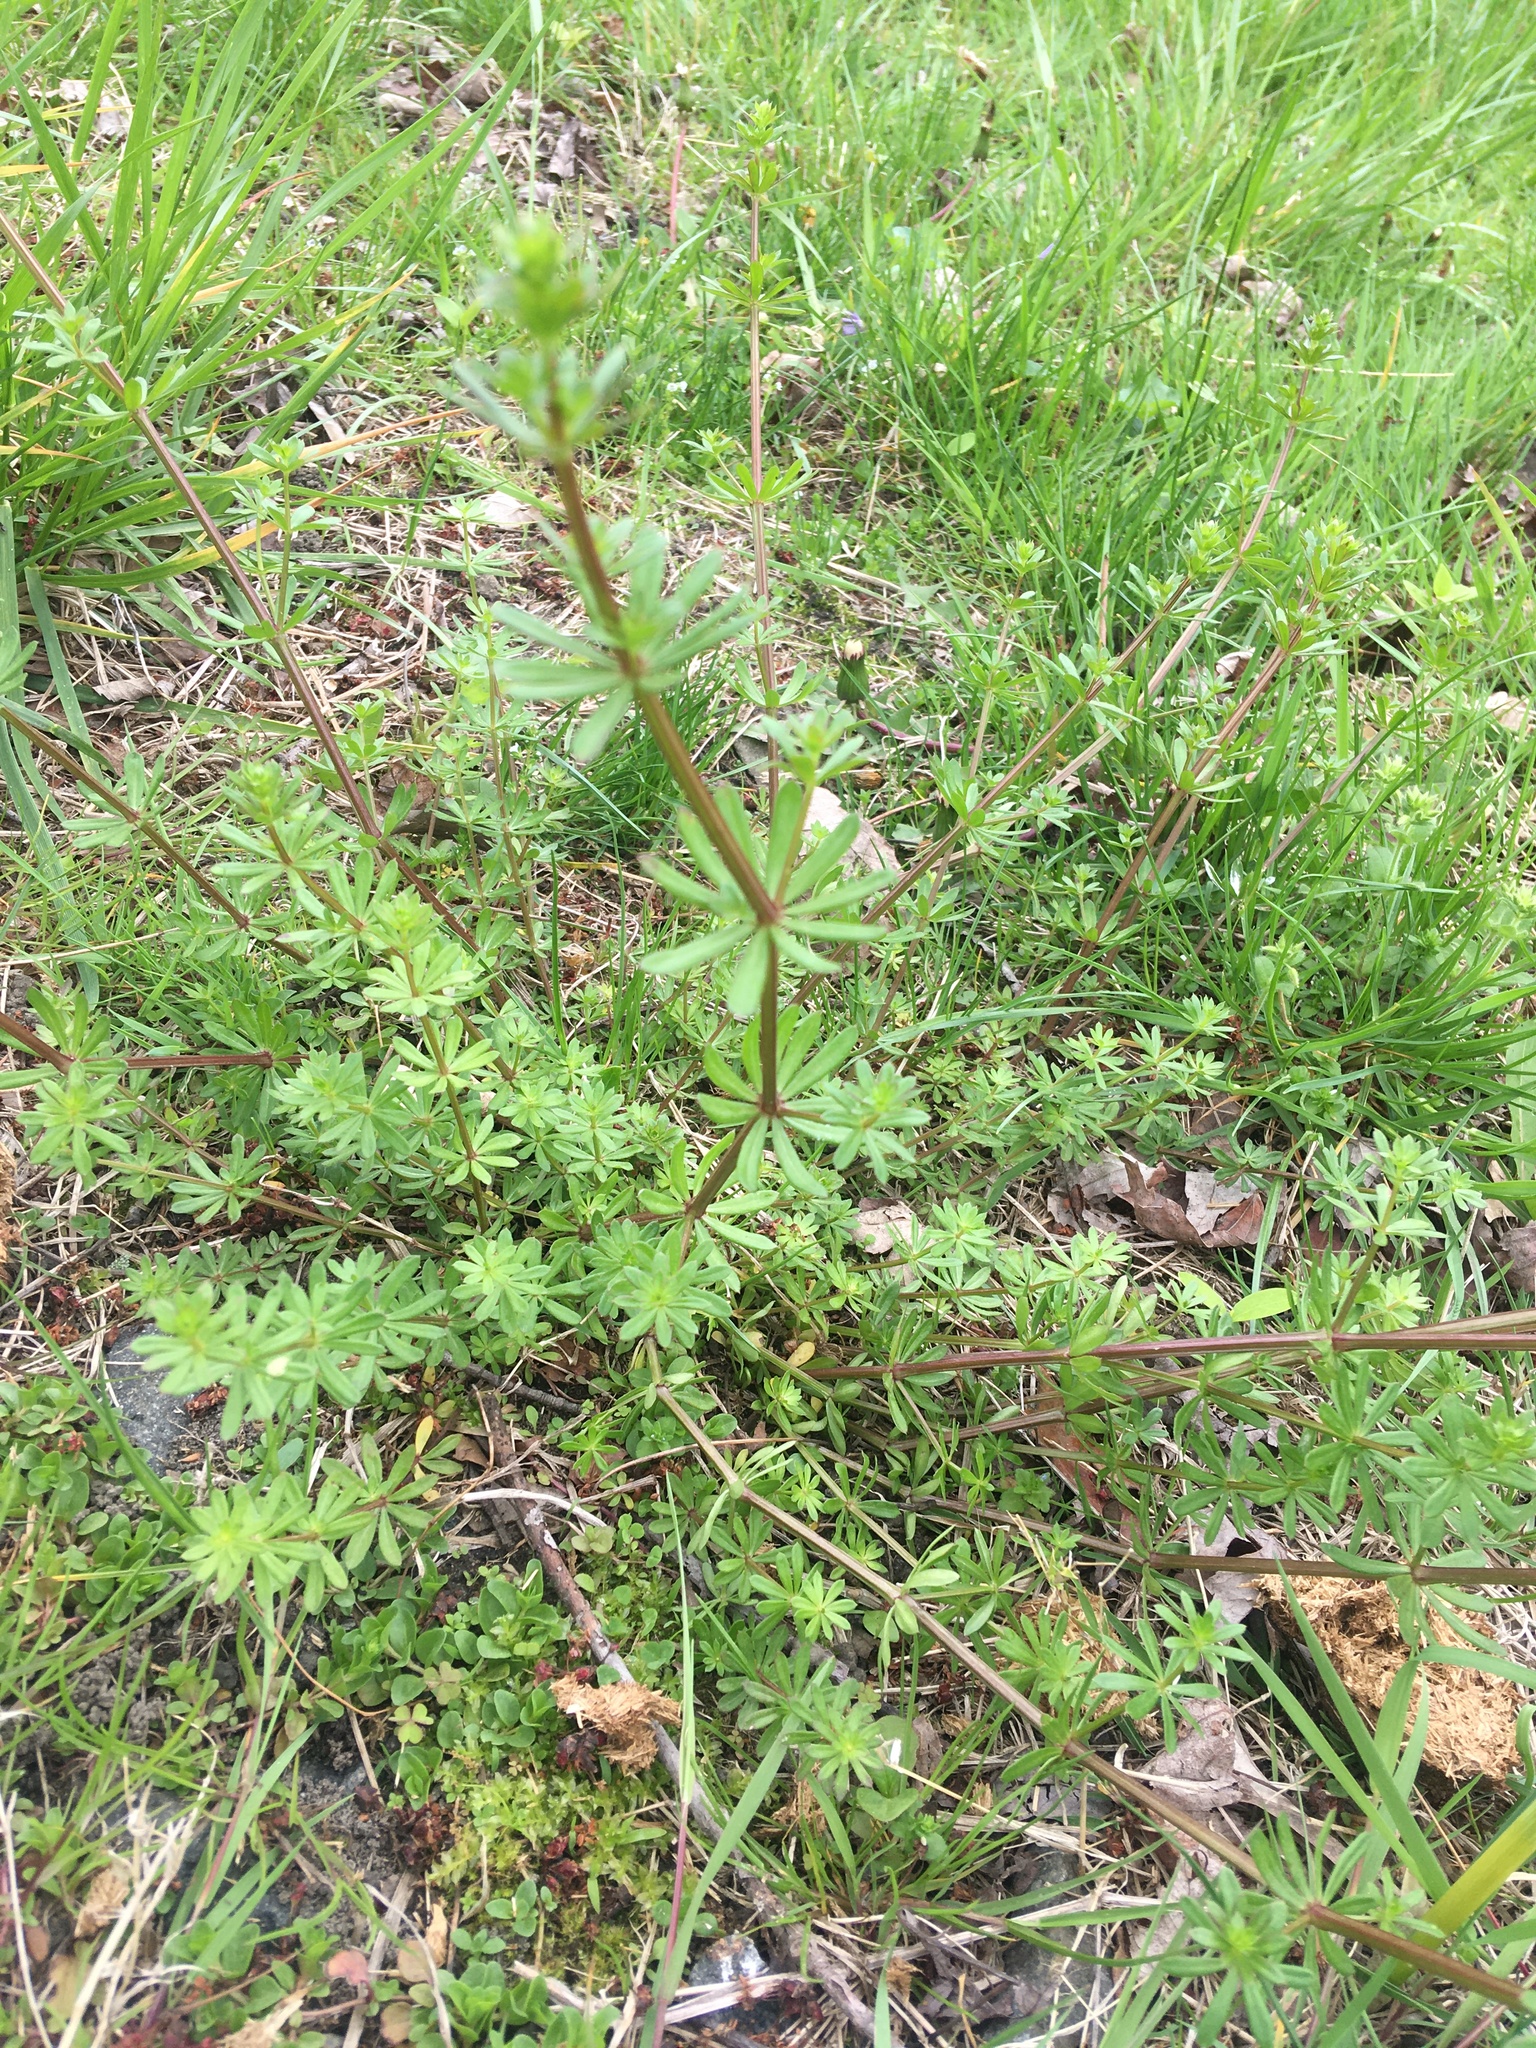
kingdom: Plantae
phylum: Tracheophyta
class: Magnoliopsida
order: Gentianales
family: Rubiaceae
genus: Galium
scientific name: Galium mollugo
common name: Hedge bedstraw
